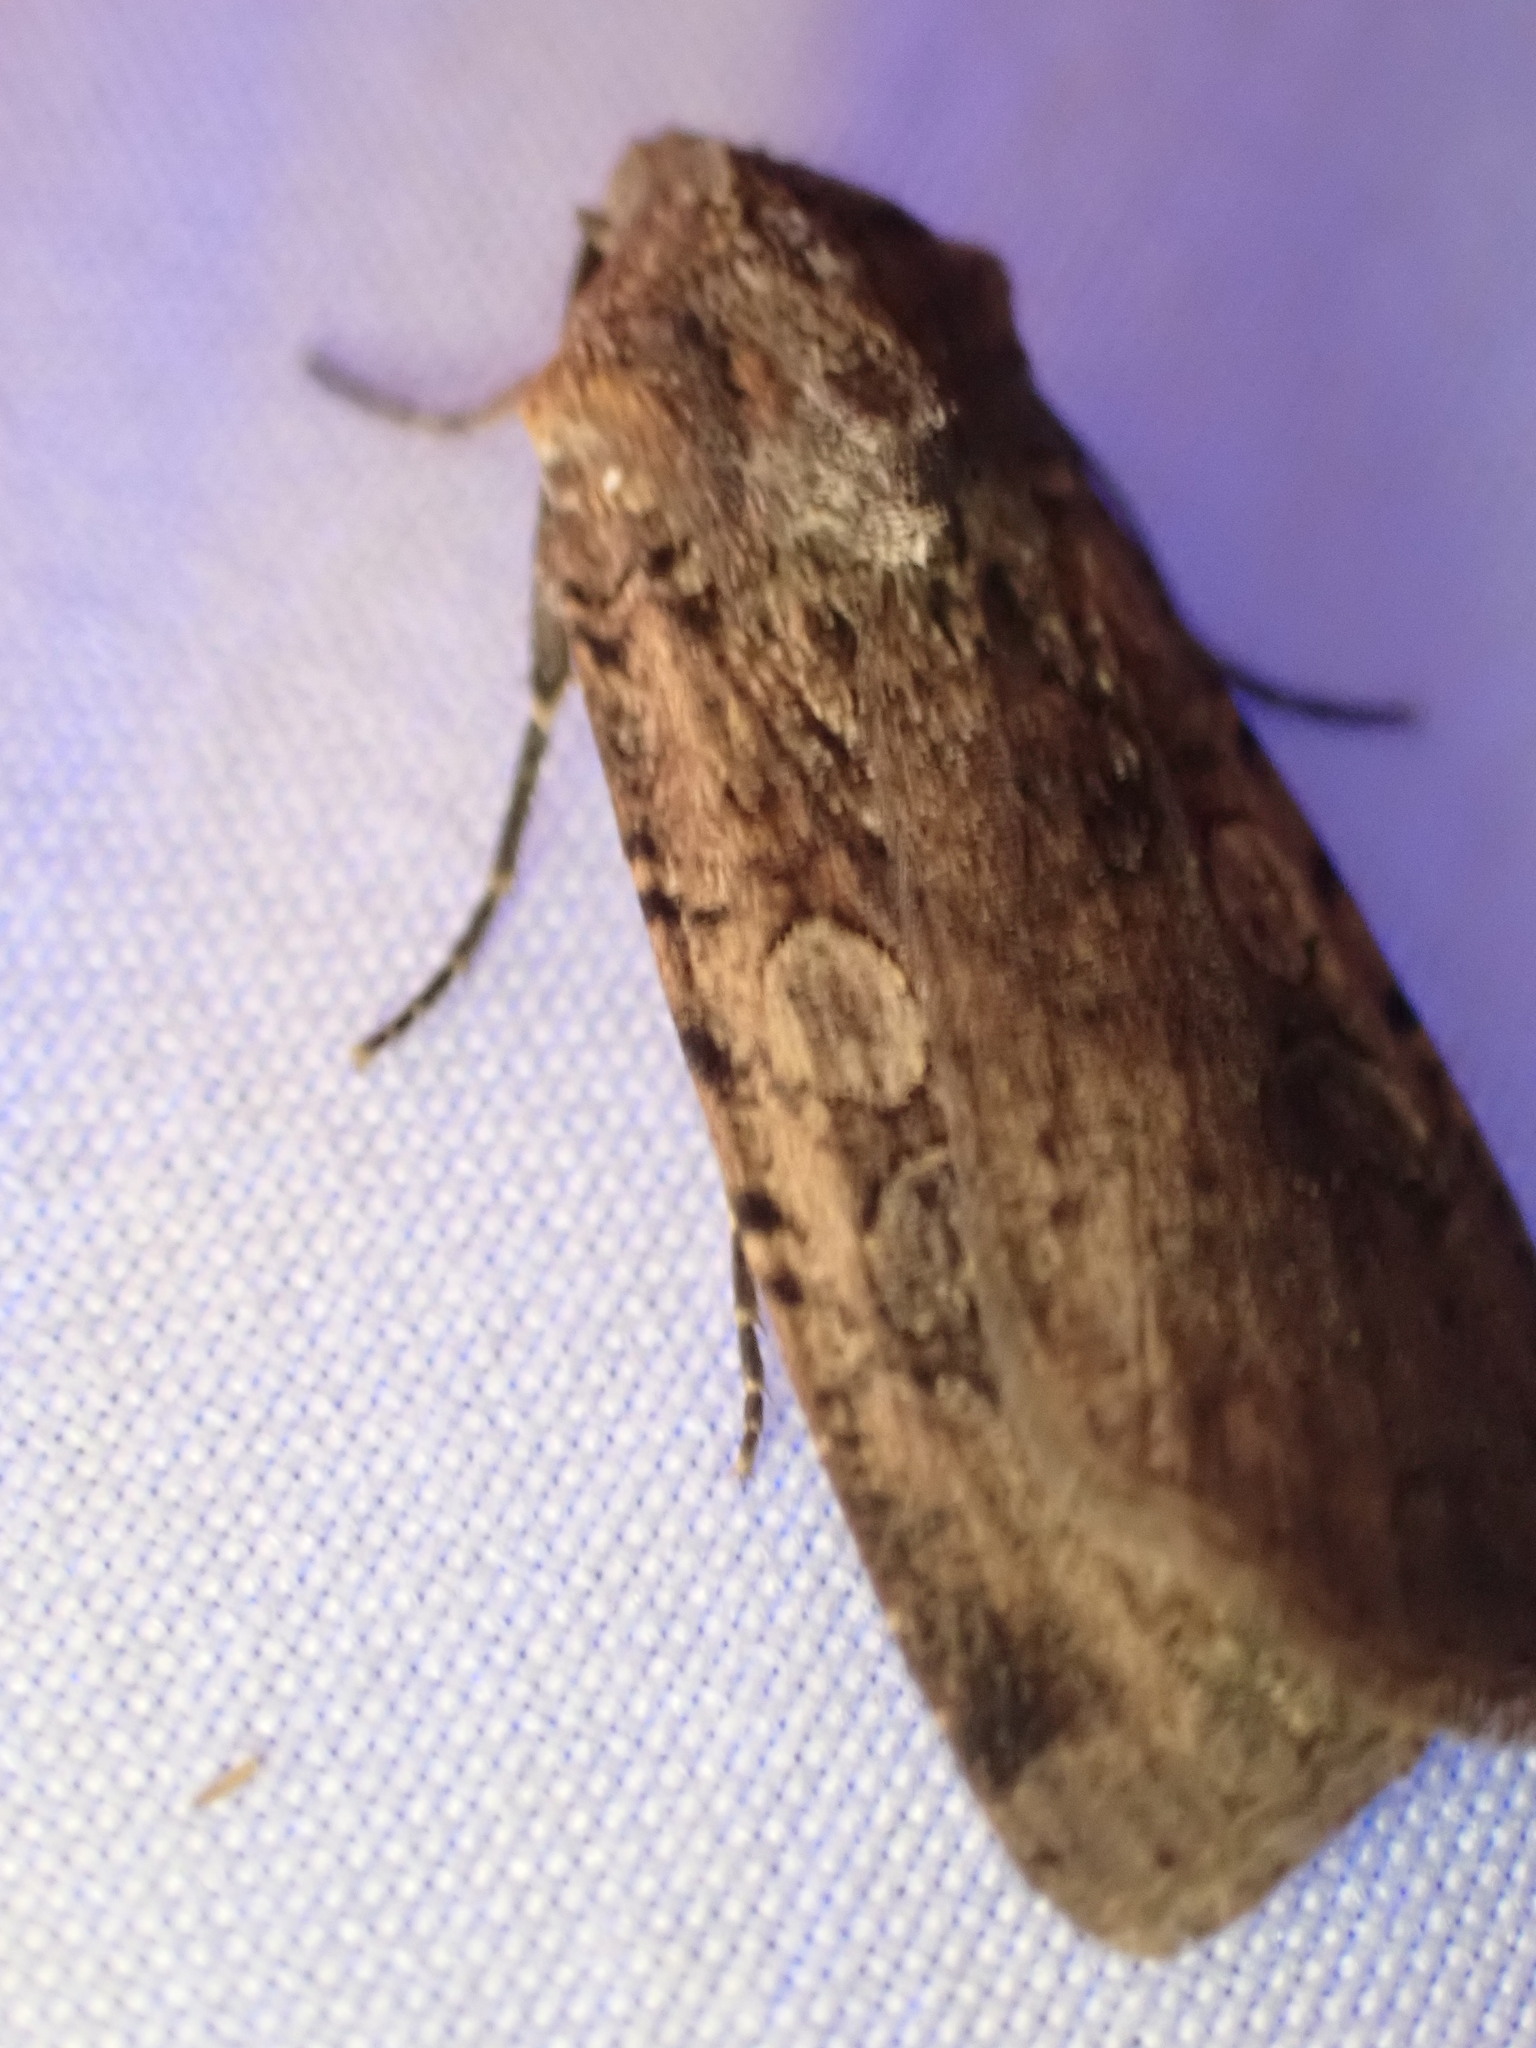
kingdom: Animalia
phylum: Arthropoda
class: Insecta
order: Lepidoptera
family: Noctuidae
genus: Peridroma
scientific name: Peridroma saucia
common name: Pearly underwing
